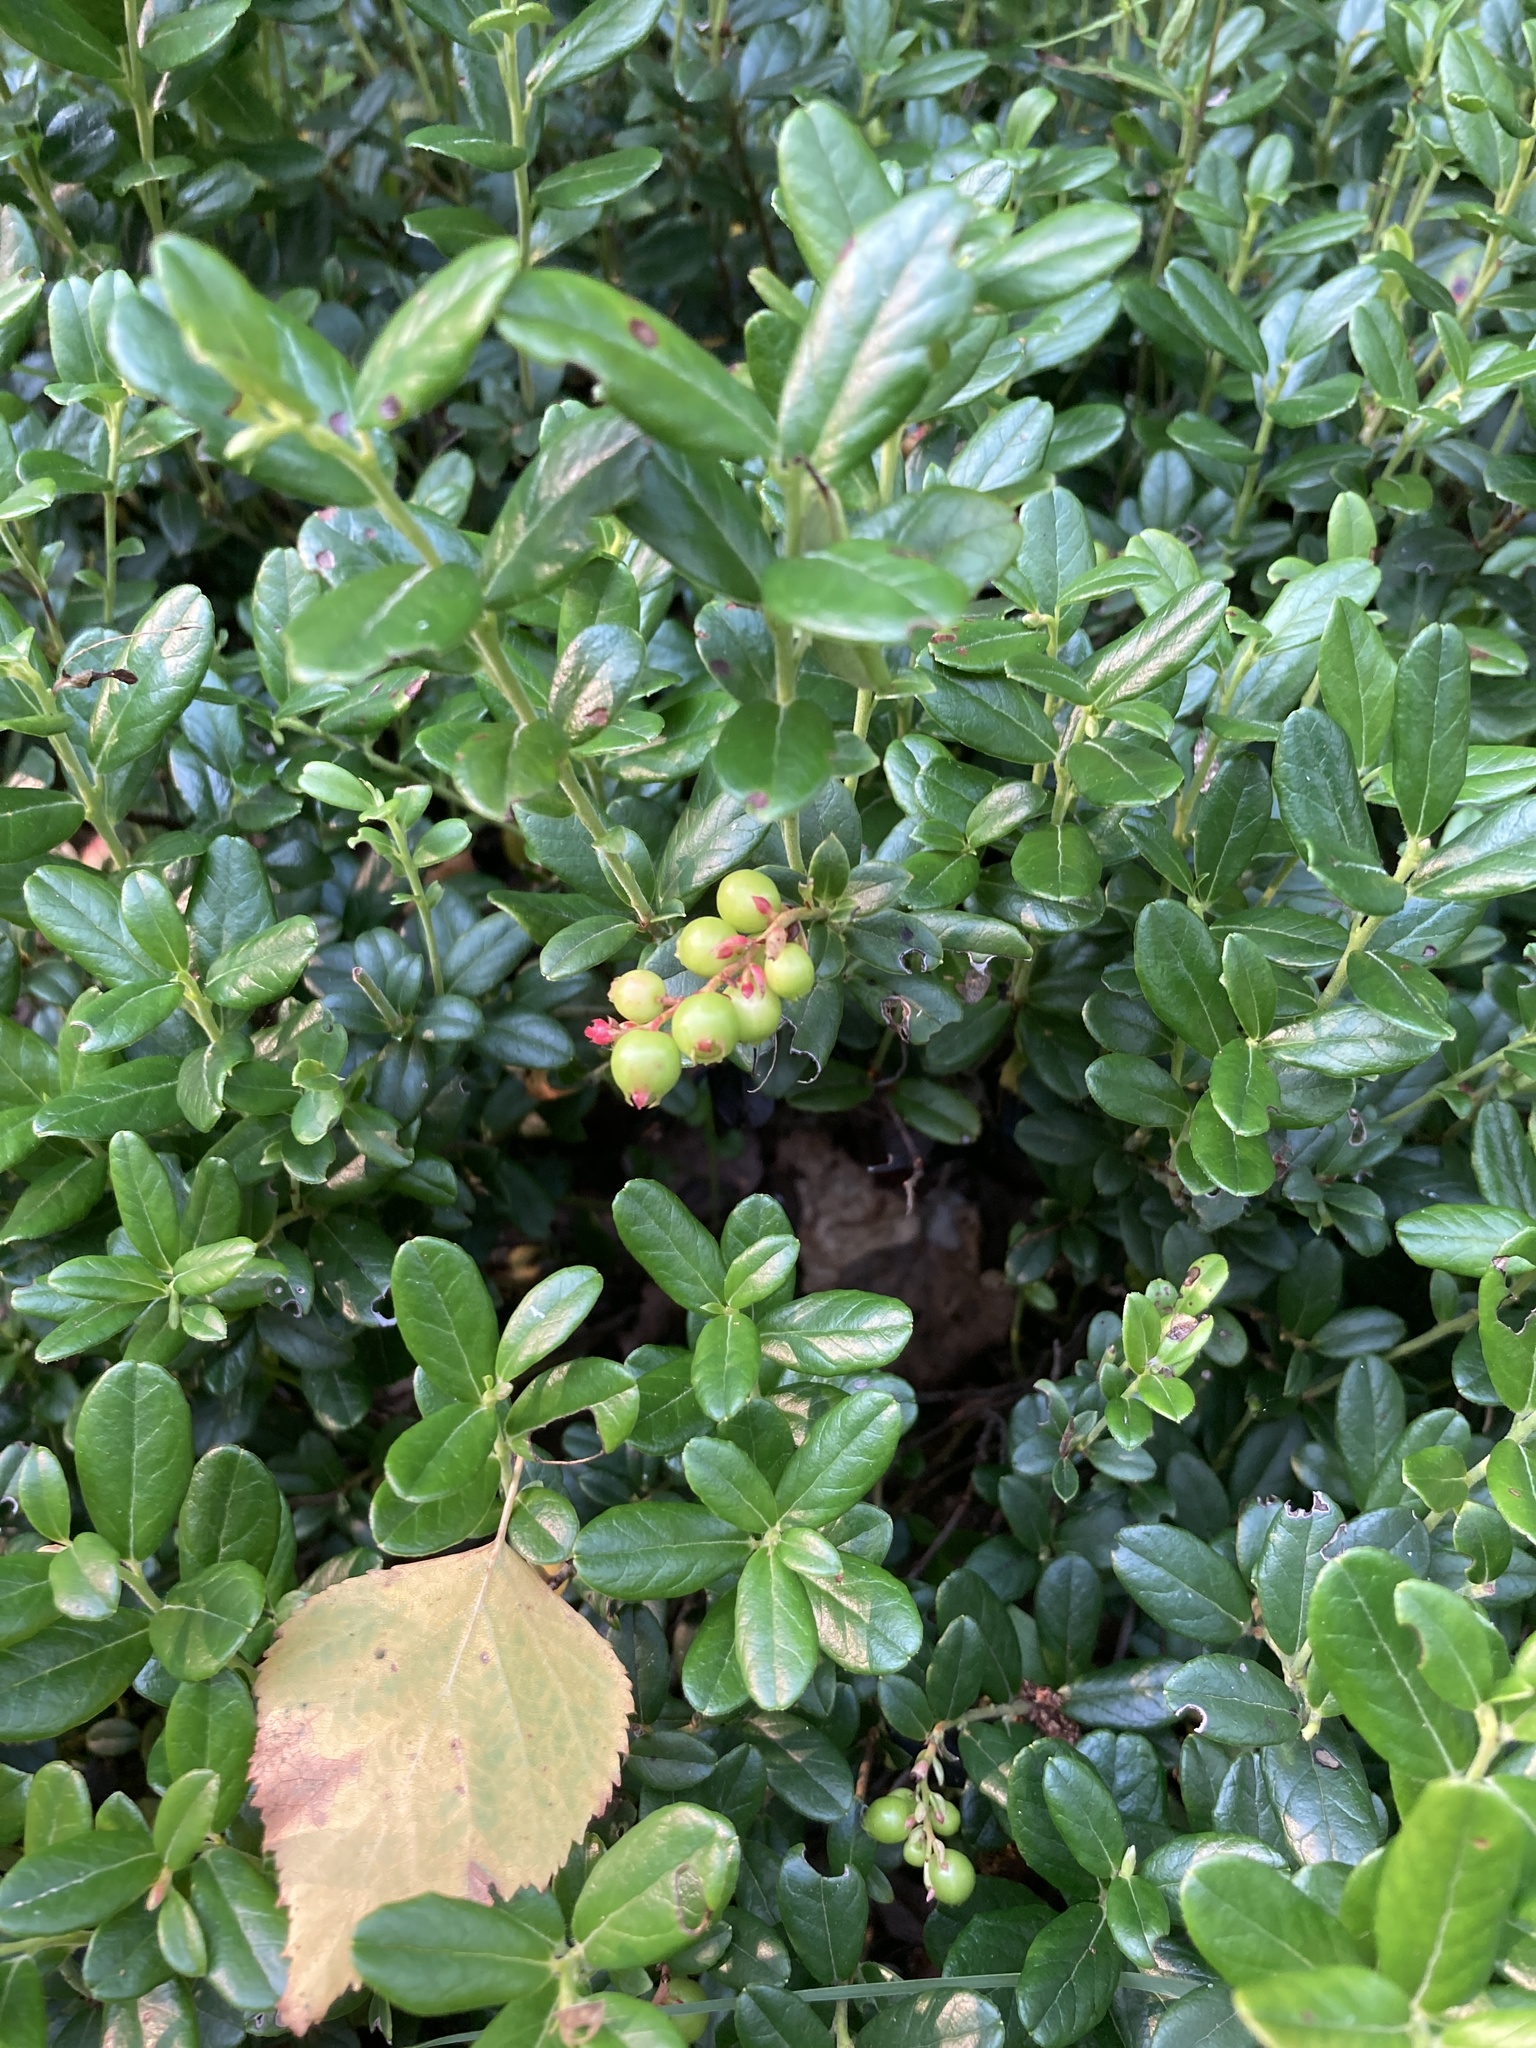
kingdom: Plantae
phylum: Tracheophyta
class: Magnoliopsida
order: Ericales
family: Ericaceae
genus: Vaccinium
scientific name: Vaccinium vitis-idaea
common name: Cowberry
